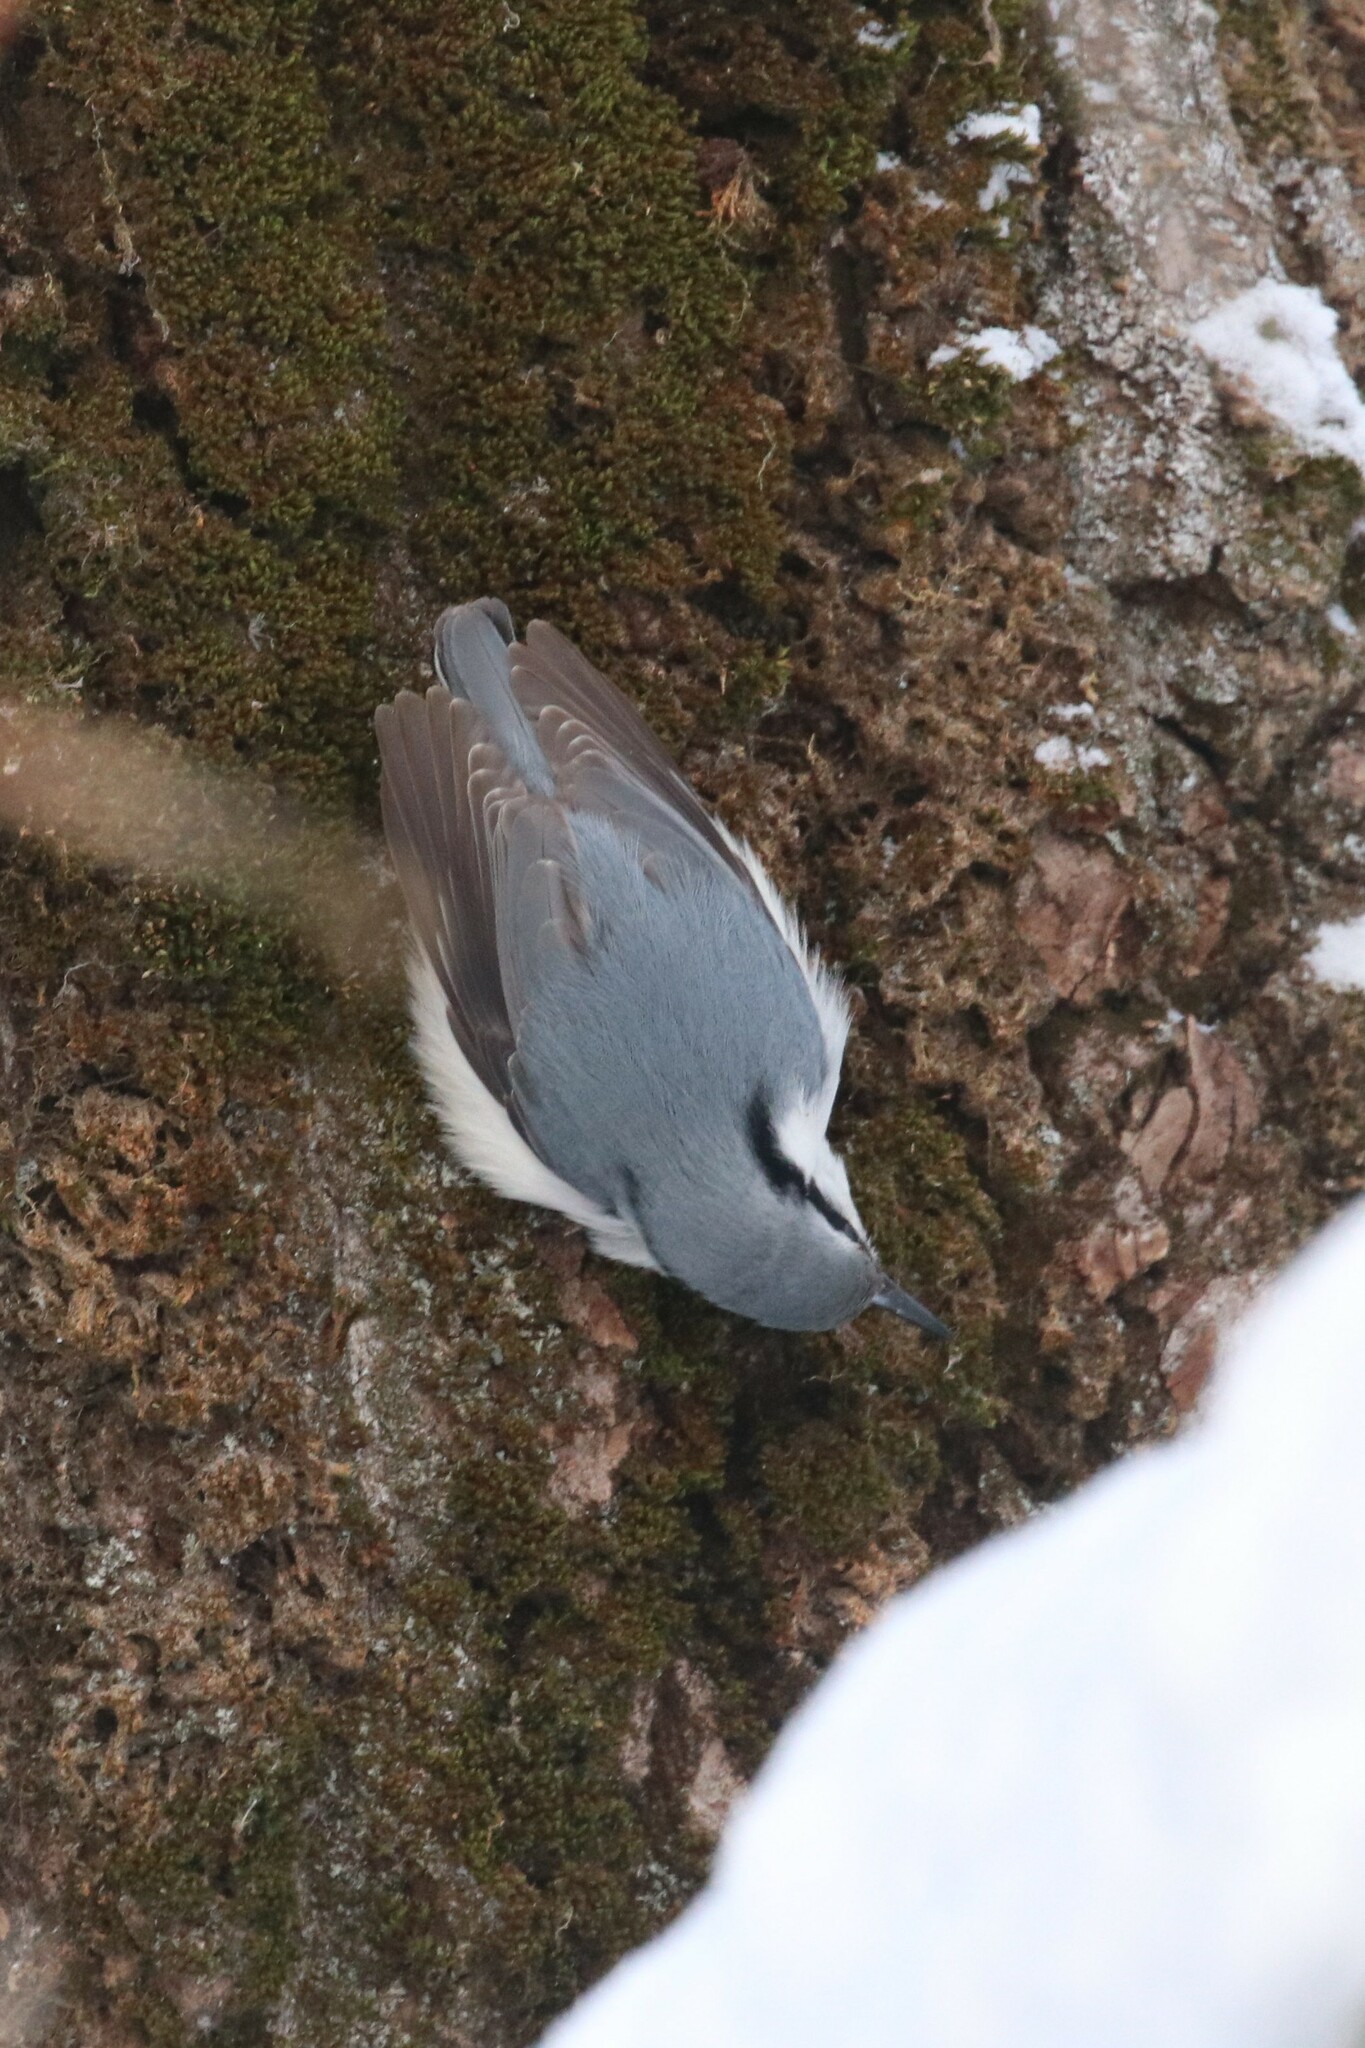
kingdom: Animalia
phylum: Chordata
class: Aves
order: Passeriformes
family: Sittidae
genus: Sitta
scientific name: Sitta europaea
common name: Eurasian nuthatch
